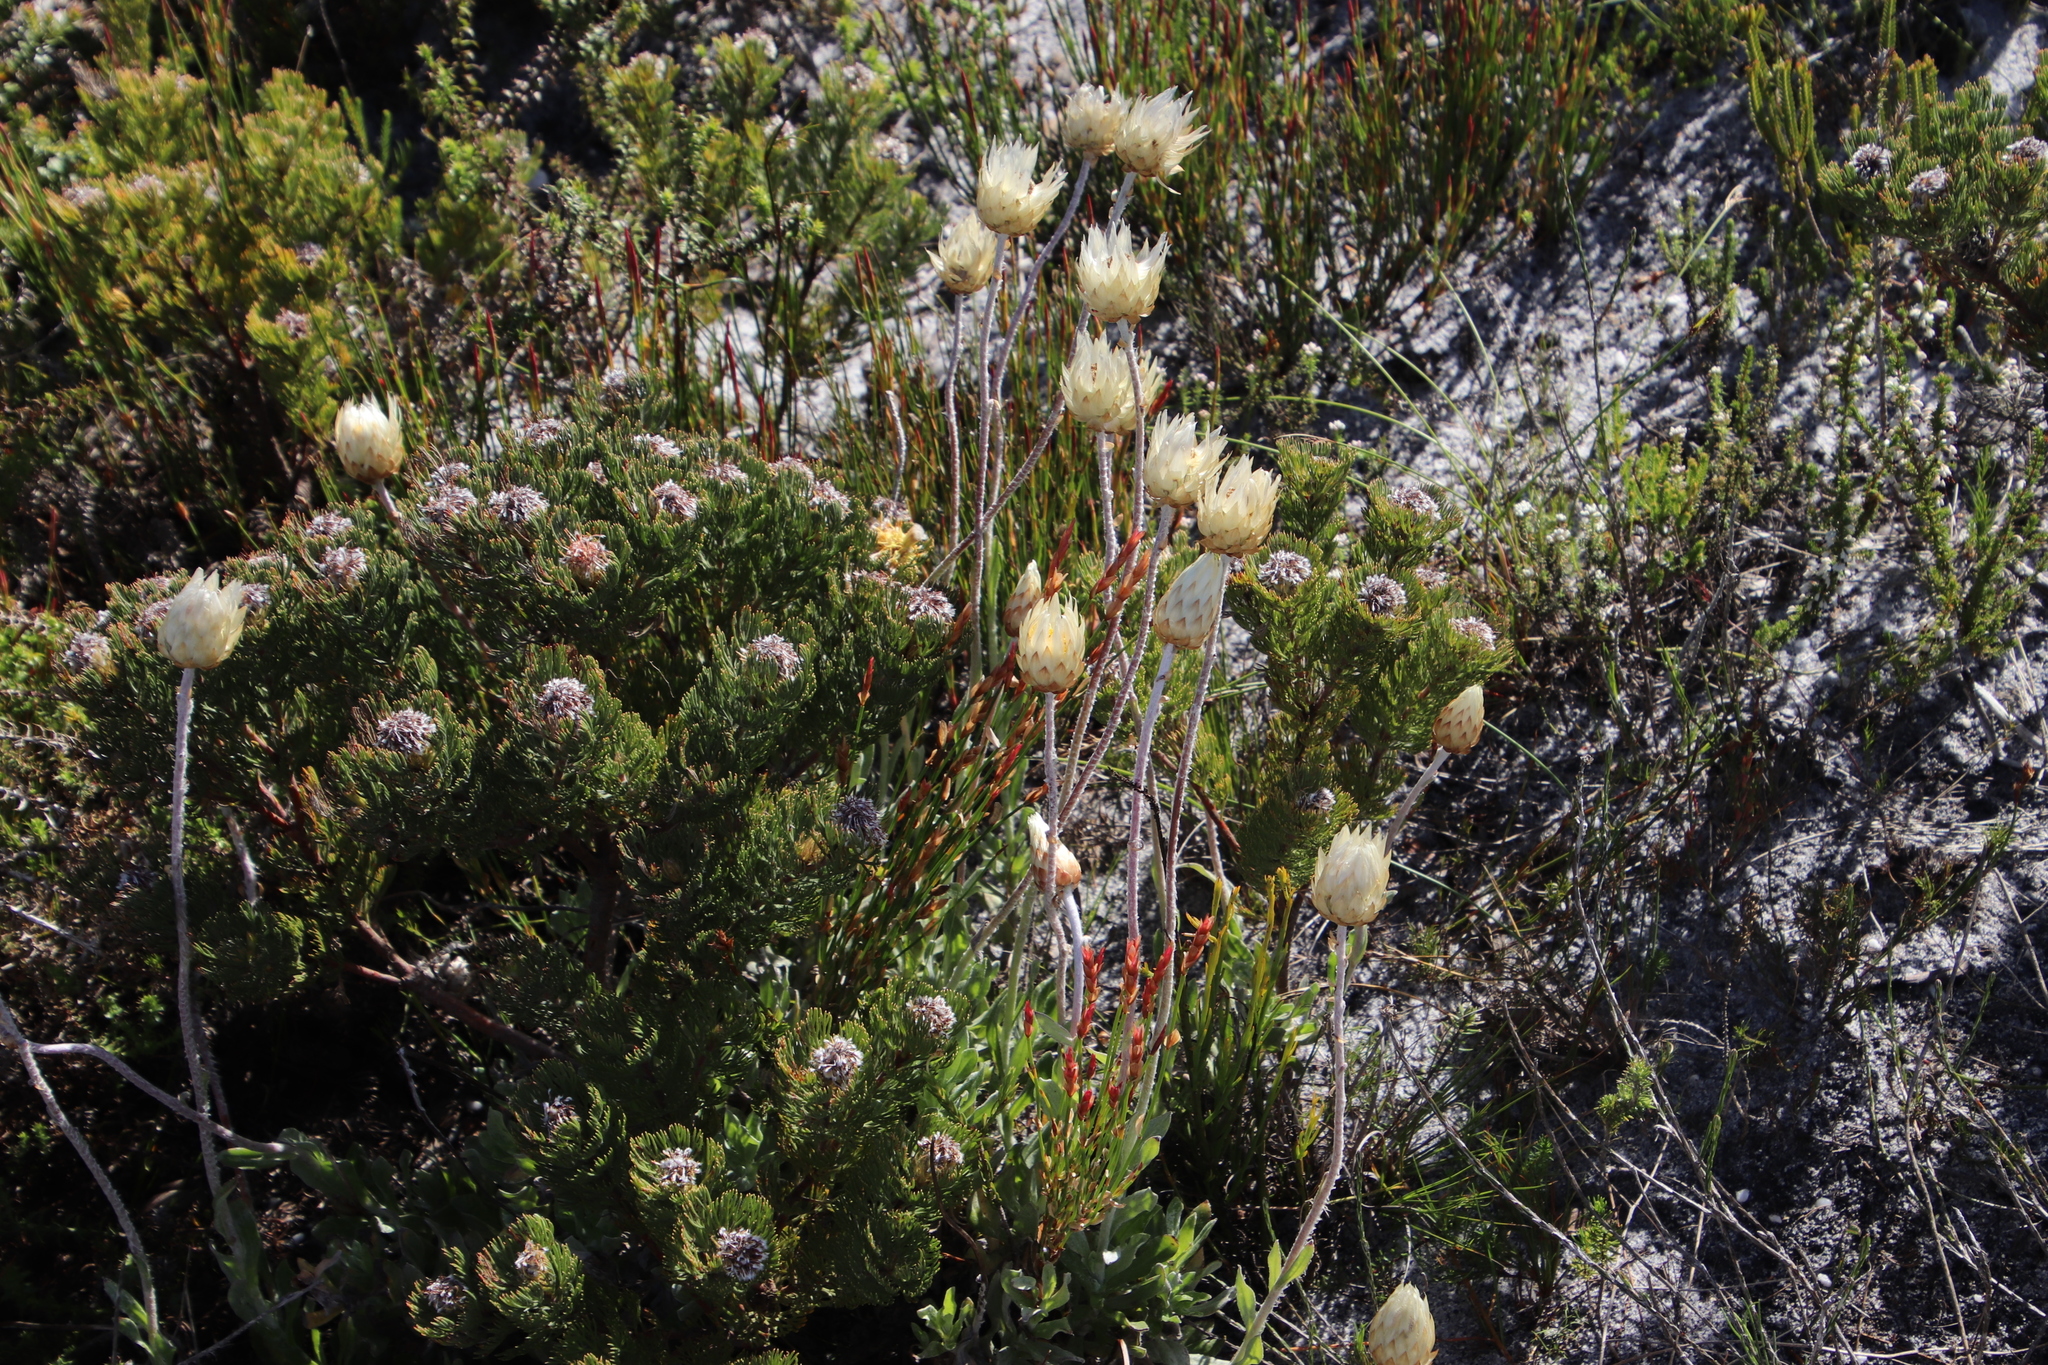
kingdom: Plantae
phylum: Tracheophyta
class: Magnoliopsida
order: Sapindales
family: Rutaceae
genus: Agathosma
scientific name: Agathosma hookeri
